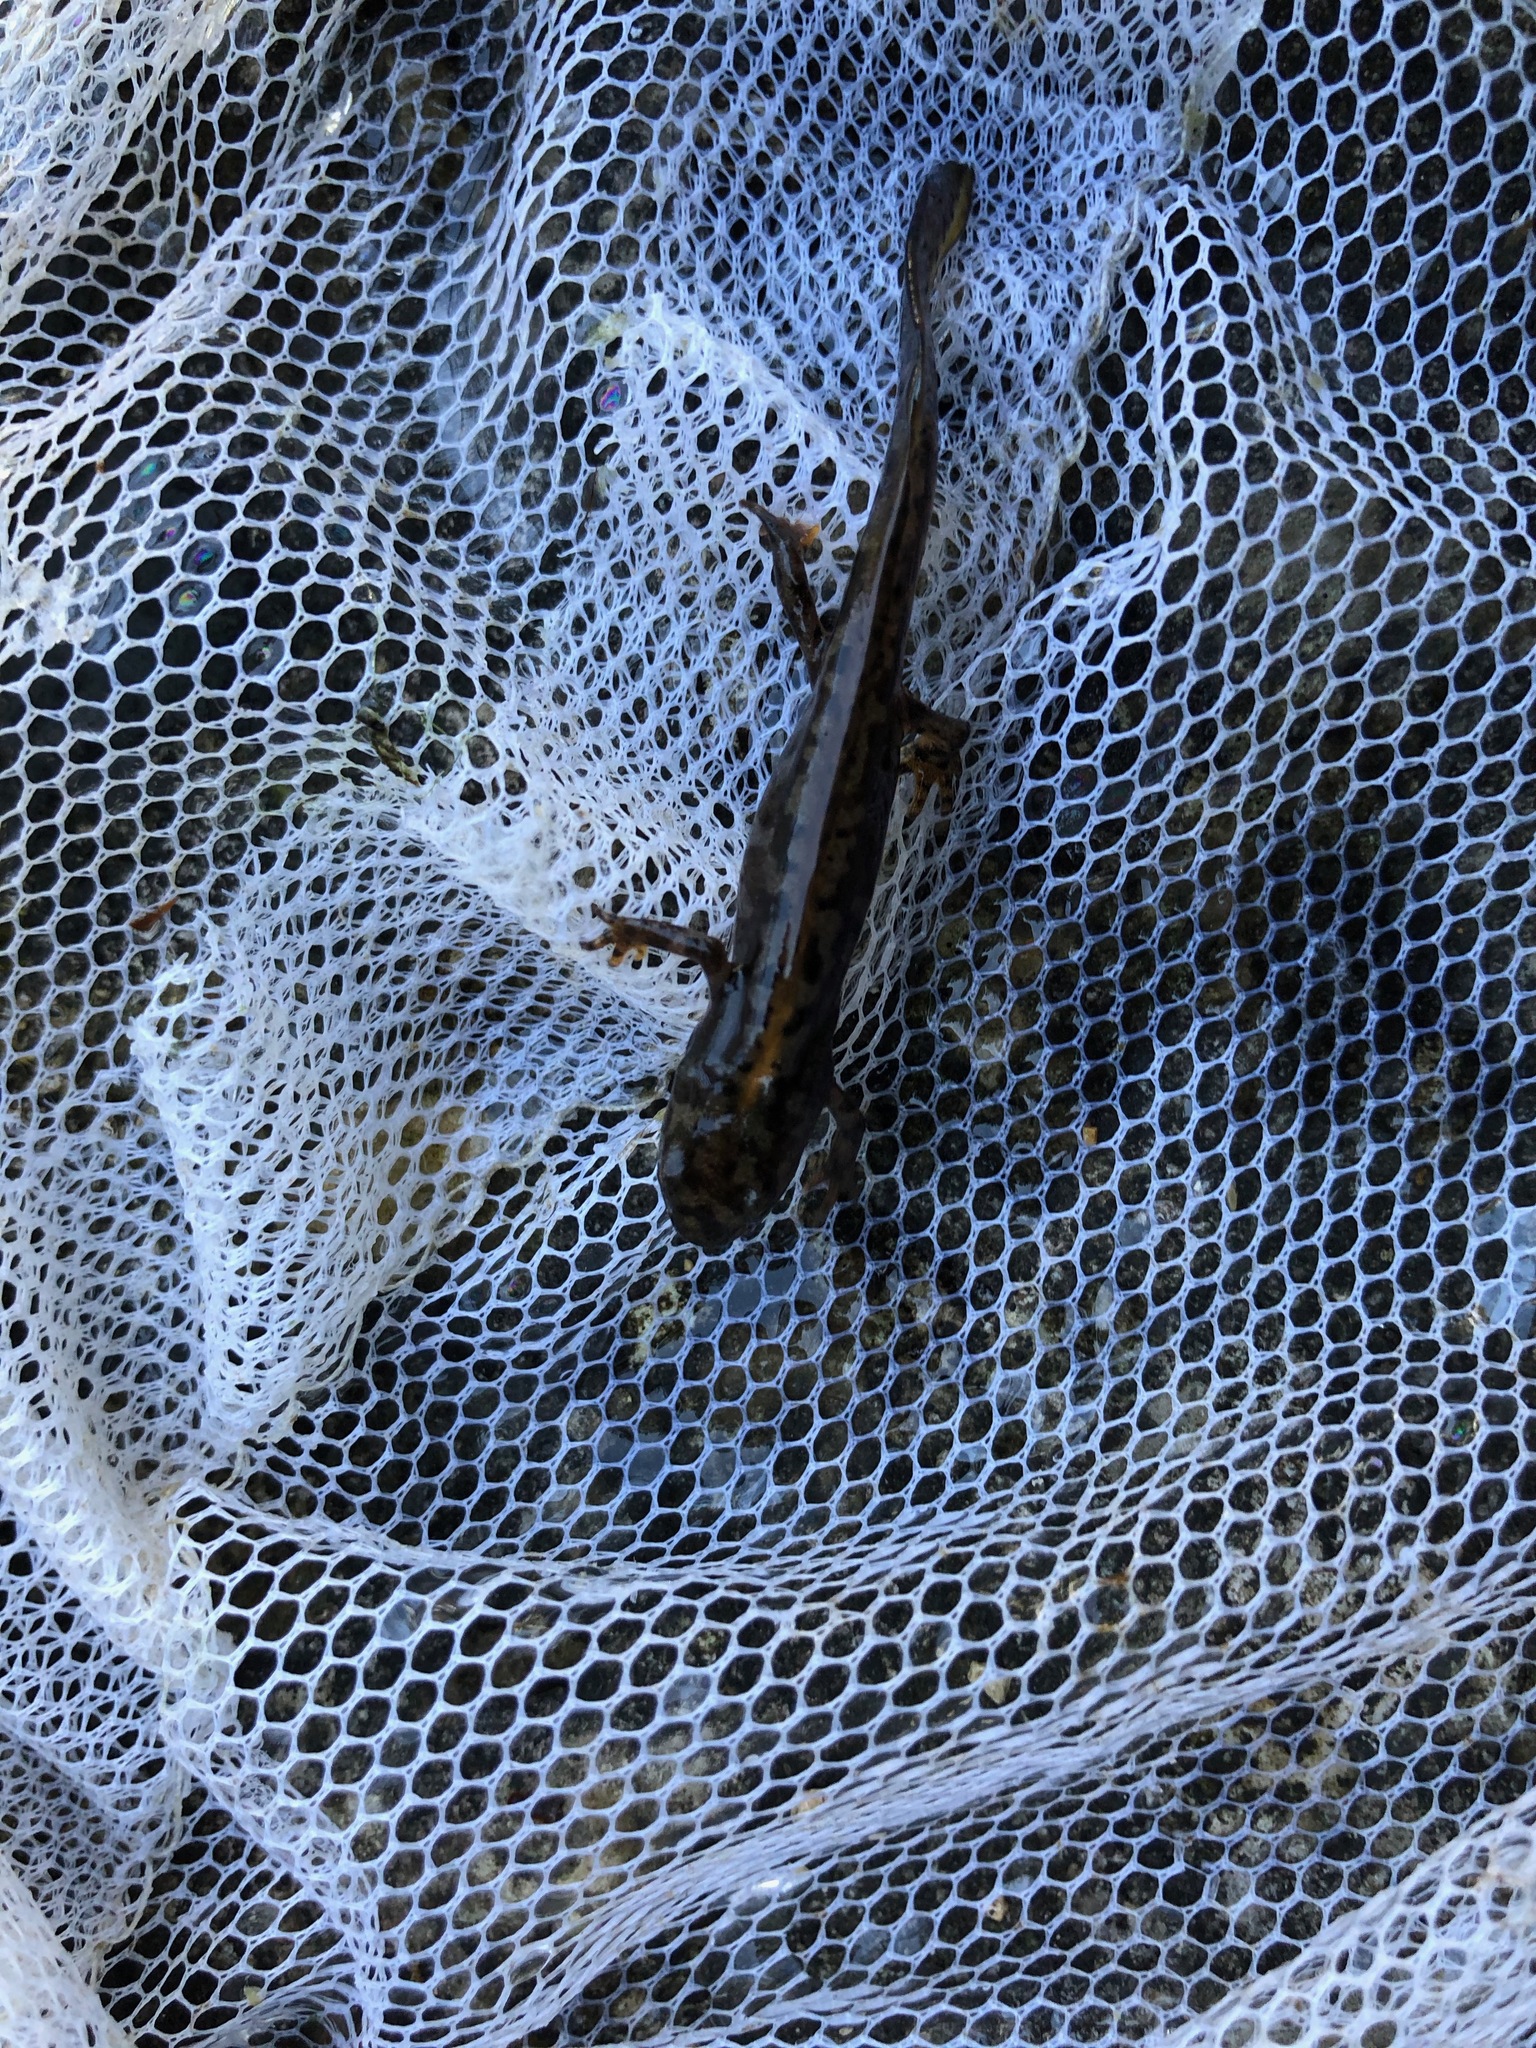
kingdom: Animalia
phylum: Chordata
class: Amphibia
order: Caudata
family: Salamandridae
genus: Ichthyosaura
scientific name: Ichthyosaura alpestris
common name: Alpine newt
